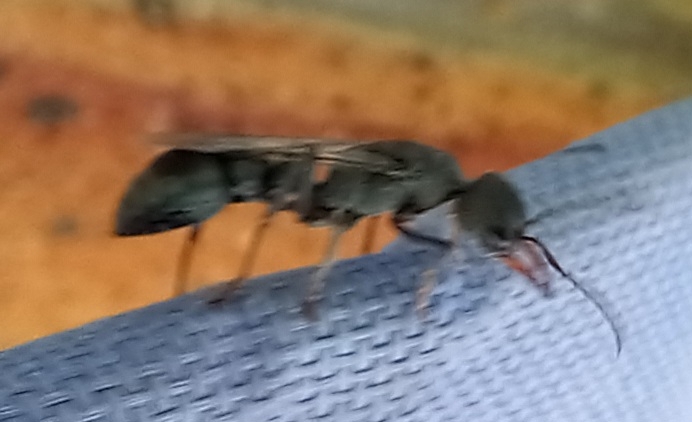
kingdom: Animalia
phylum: Arthropoda
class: Insecta
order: Hymenoptera
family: Formicidae
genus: Myrmecia
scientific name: Myrmecia clarki
